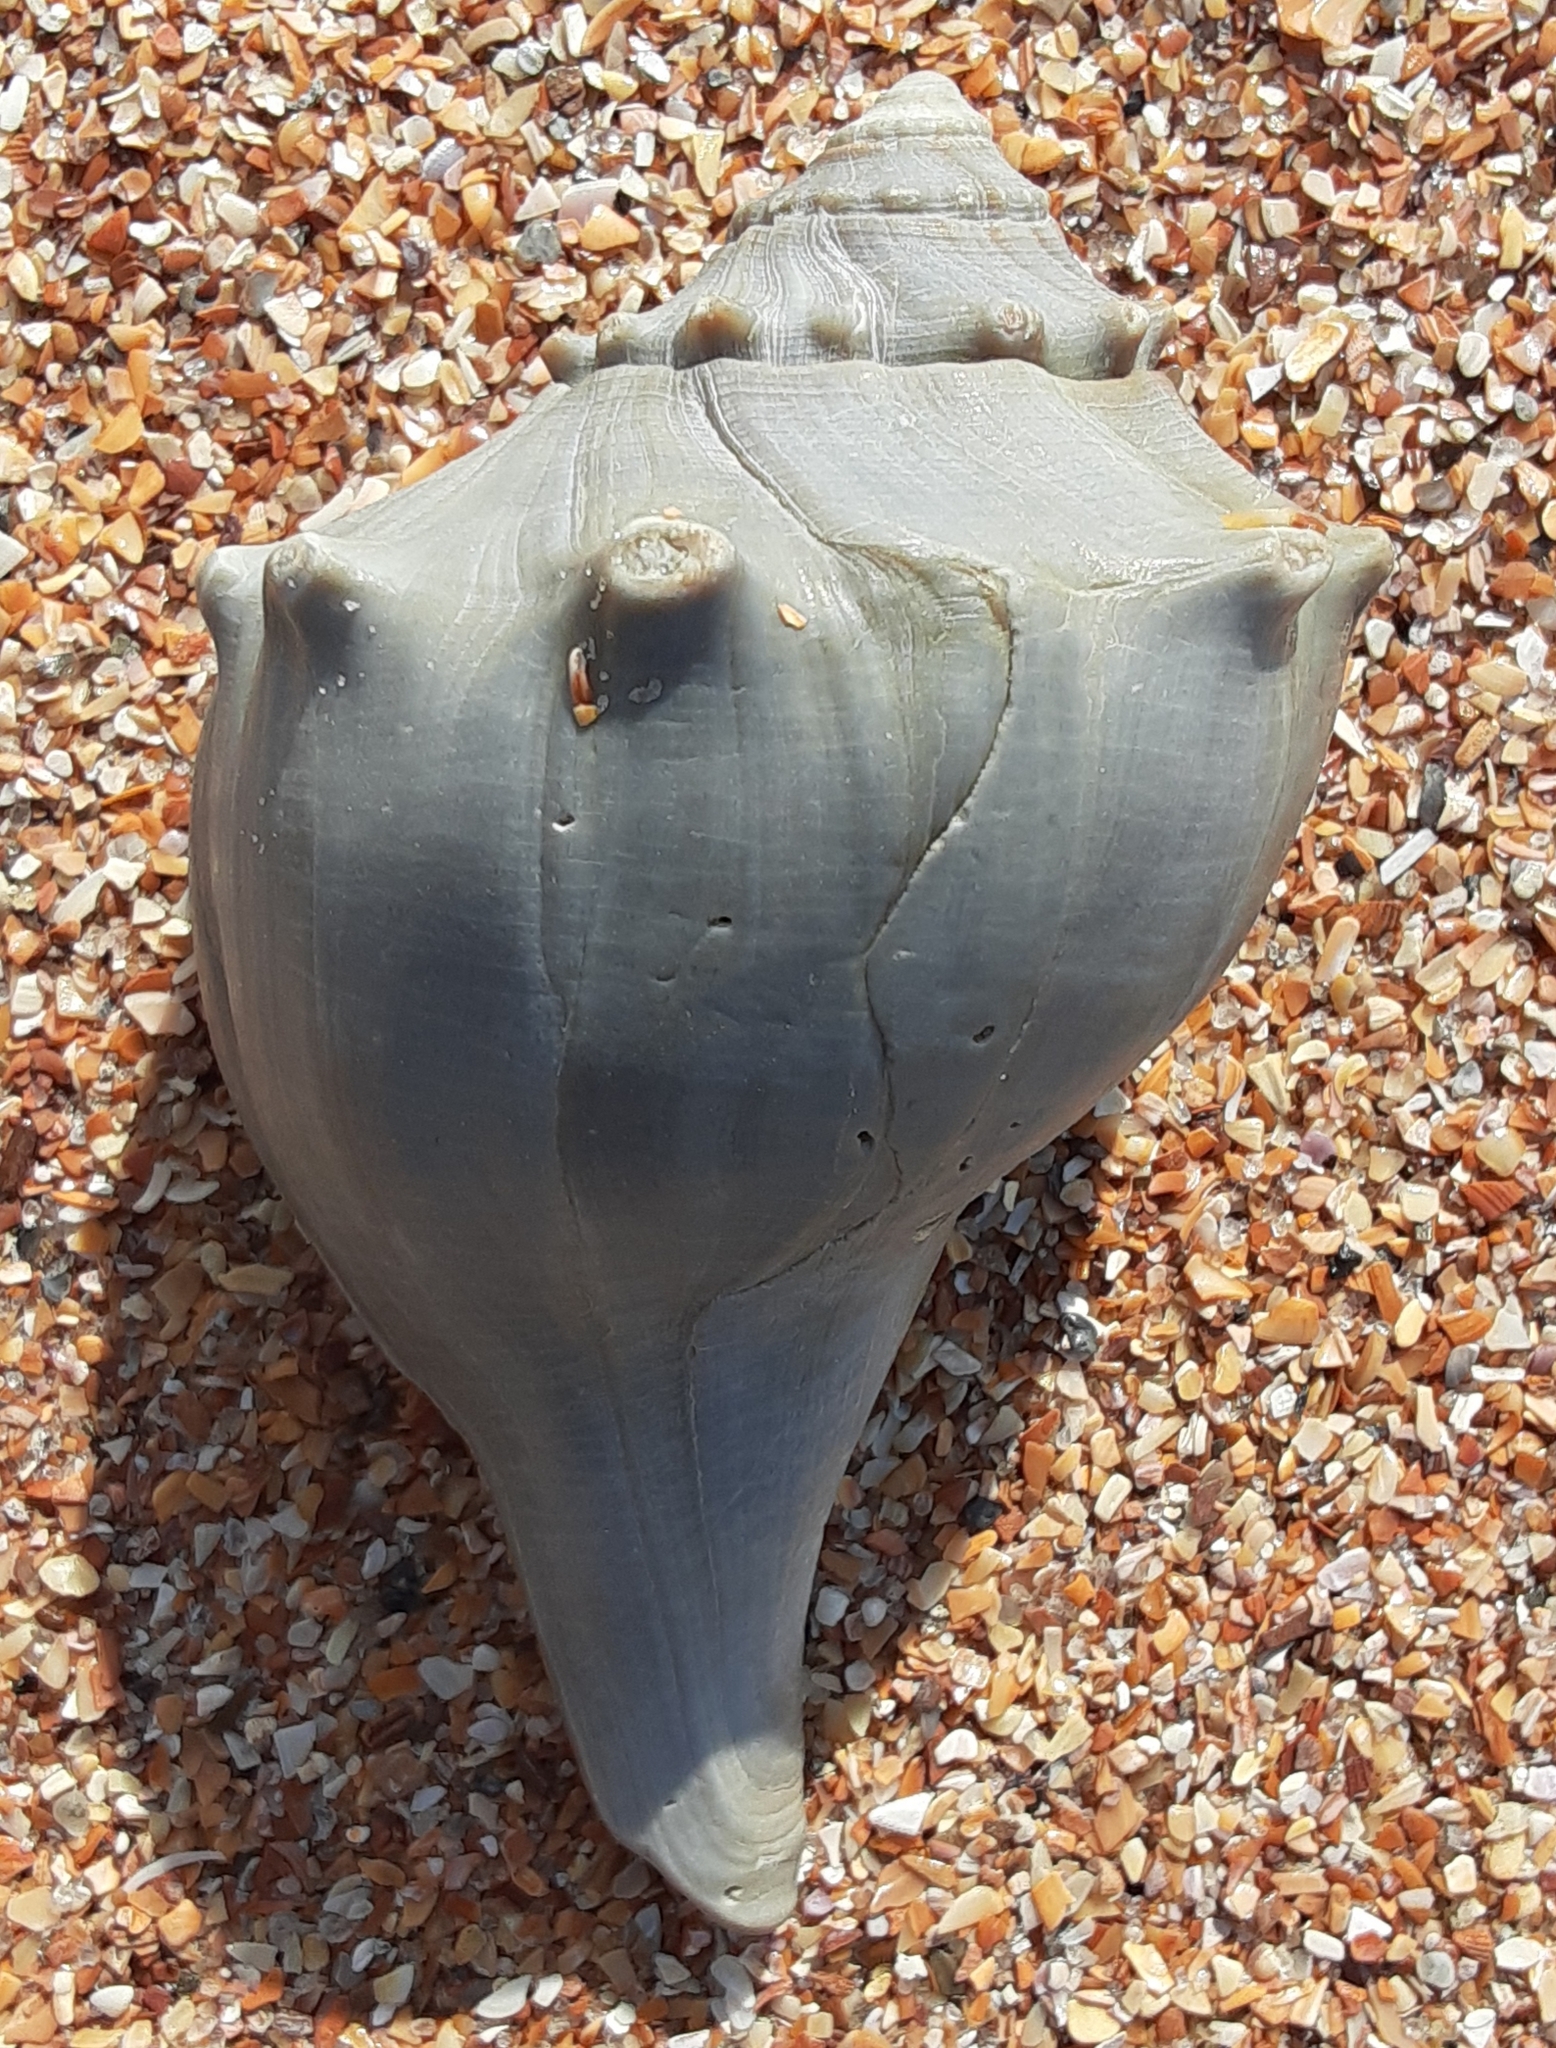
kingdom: Animalia
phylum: Mollusca
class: Gastropoda
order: Neogastropoda
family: Busyconidae
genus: Busycon
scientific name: Busycon carica
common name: Knobbed whelk
